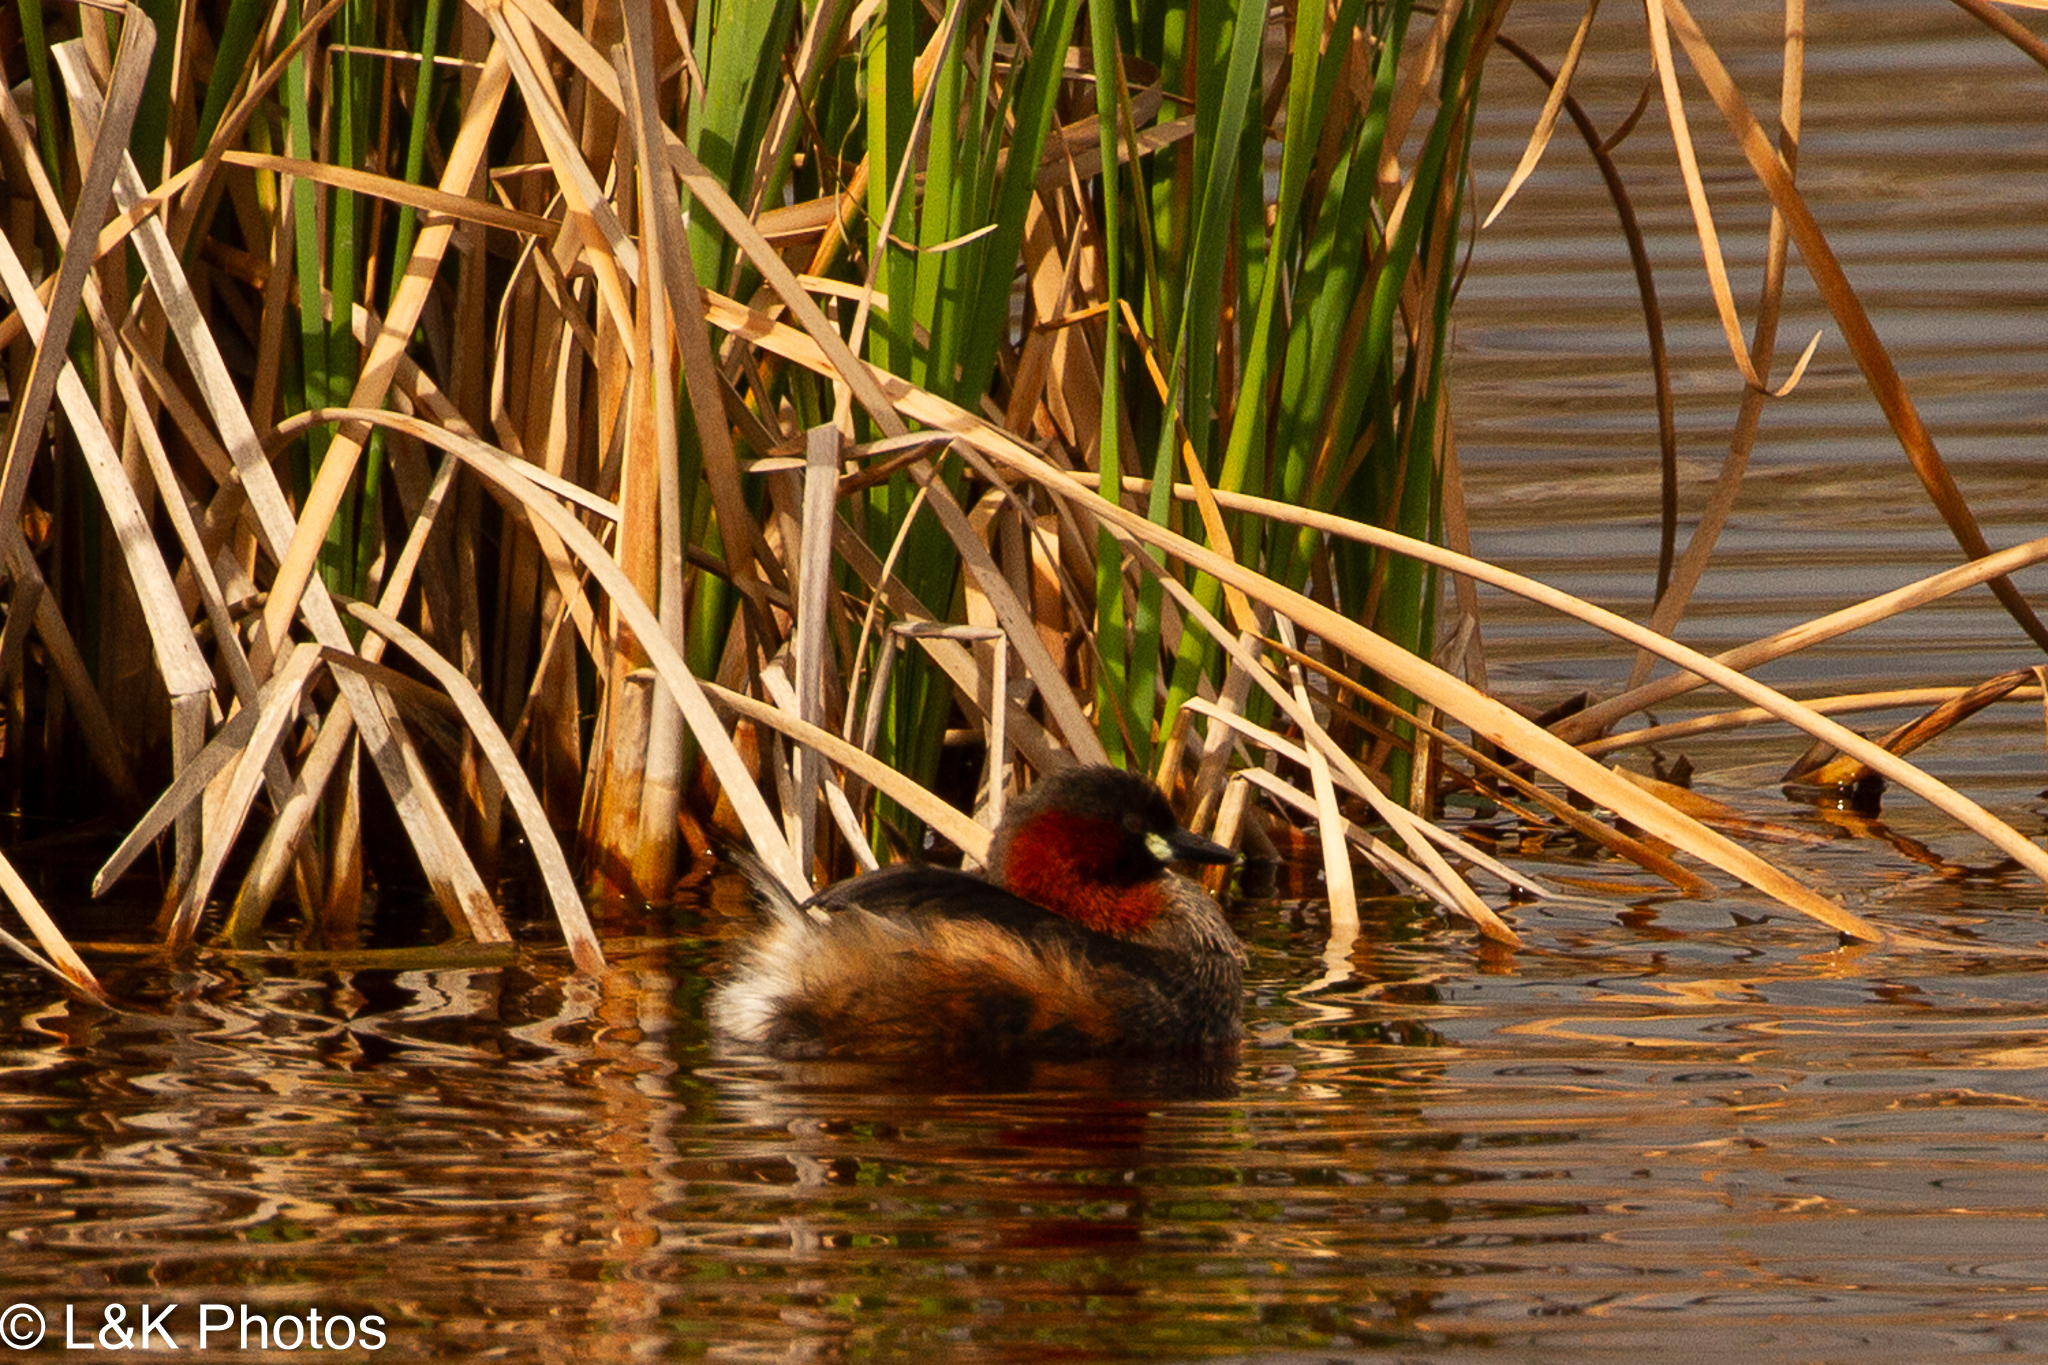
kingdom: Animalia
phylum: Chordata
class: Aves
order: Podicipediformes
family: Podicipedidae
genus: Tachybaptus
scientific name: Tachybaptus ruficollis
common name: Little grebe
